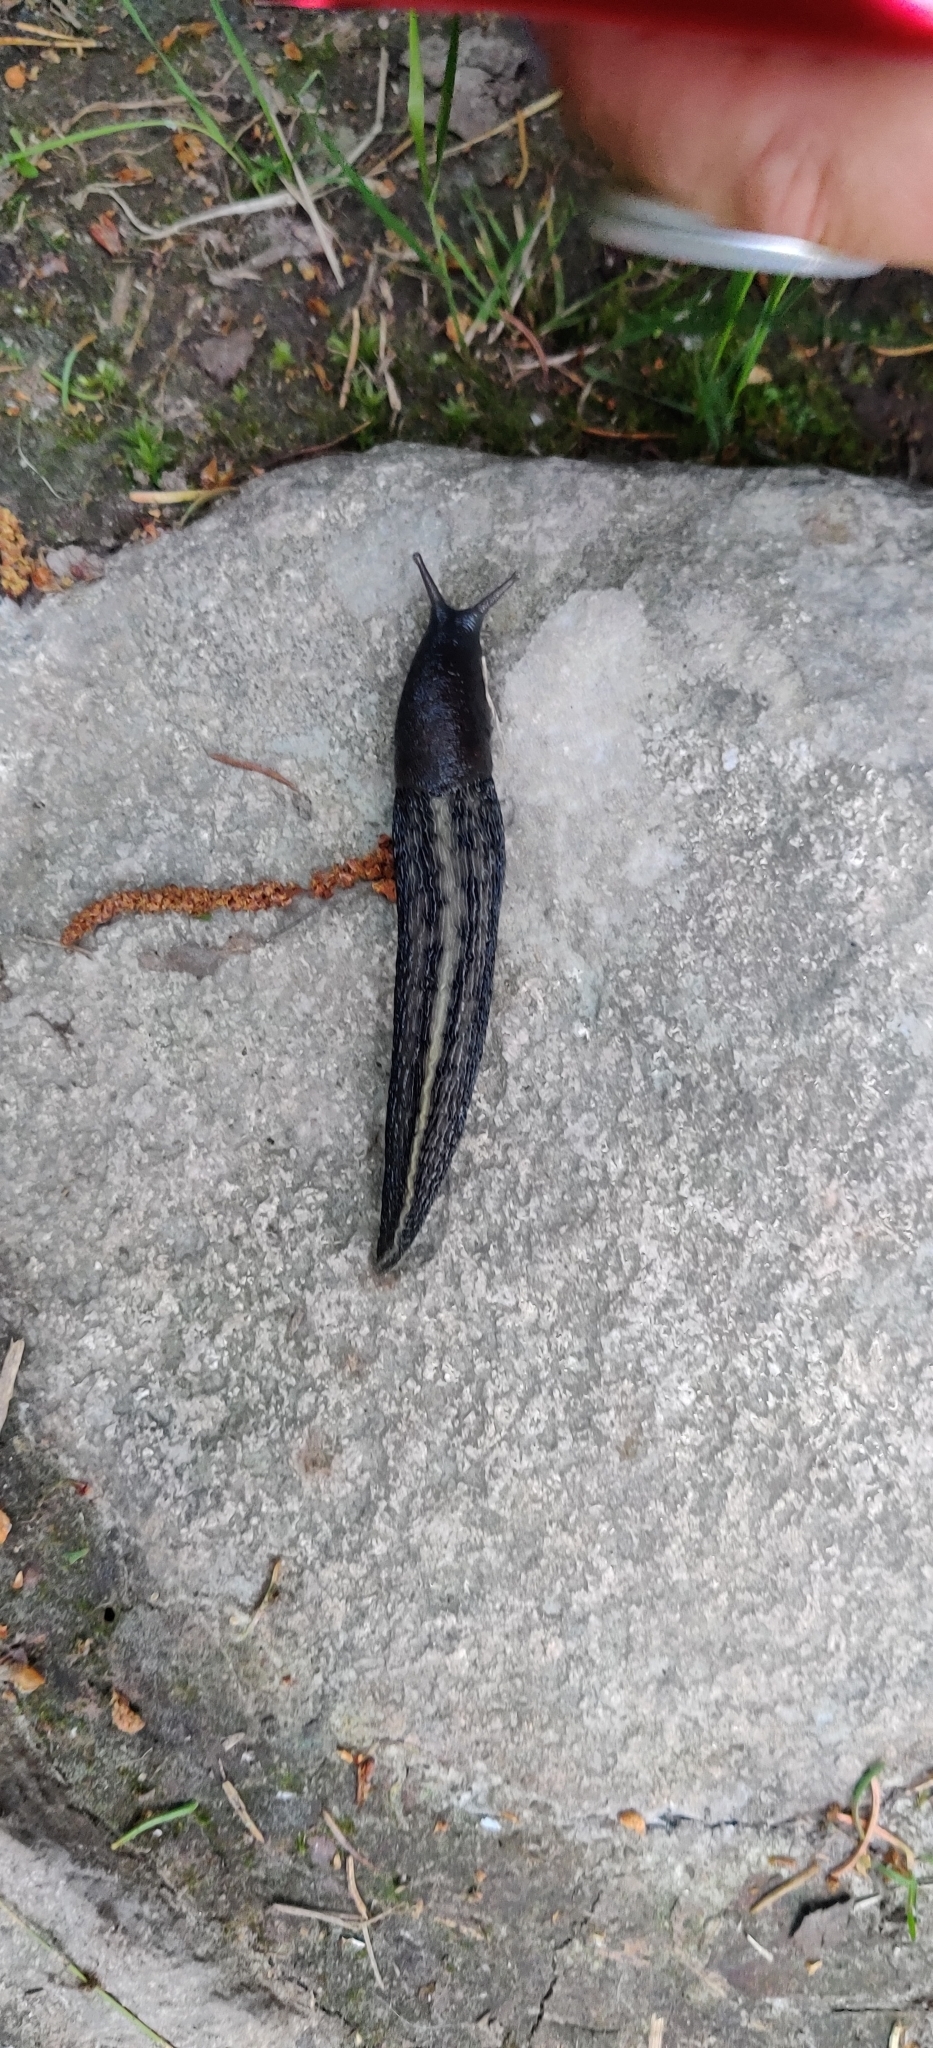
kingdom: Animalia
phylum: Mollusca
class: Gastropoda
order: Stylommatophora
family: Limacidae
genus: Limax
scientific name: Limax cinereoniger
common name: Ash-black slug
